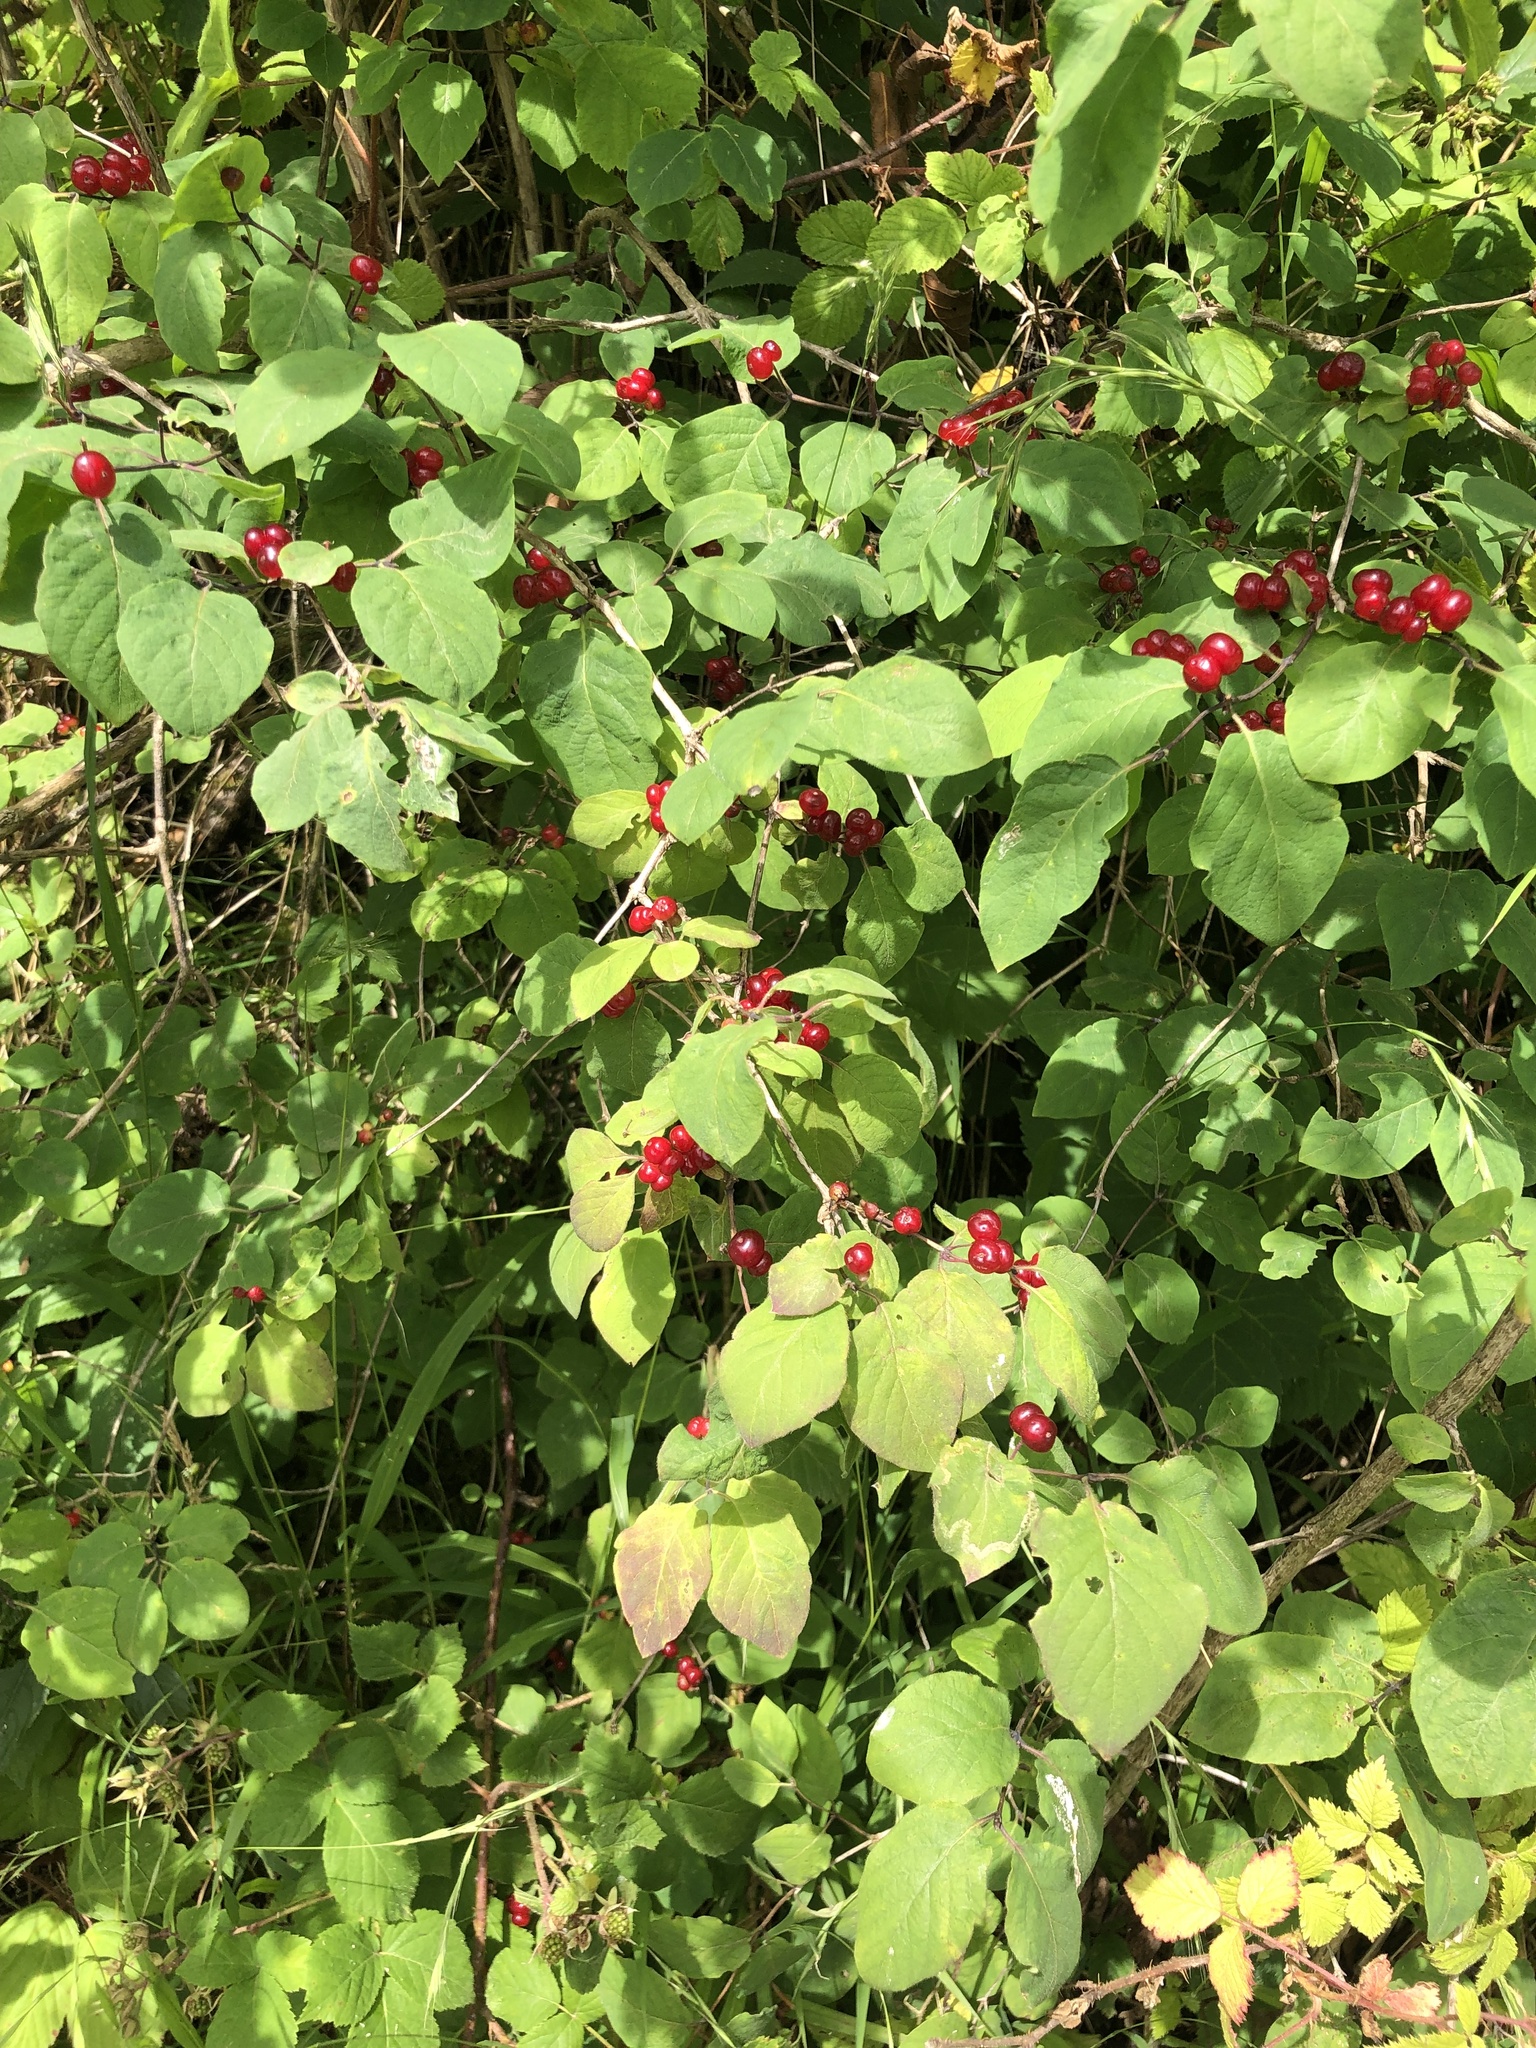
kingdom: Plantae
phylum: Tracheophyta
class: Magnoliopsida
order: Dipsacales
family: Caprifoliaceae
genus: Lonicera
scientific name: Lonicera xylosteum
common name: Fly honeysuckle
